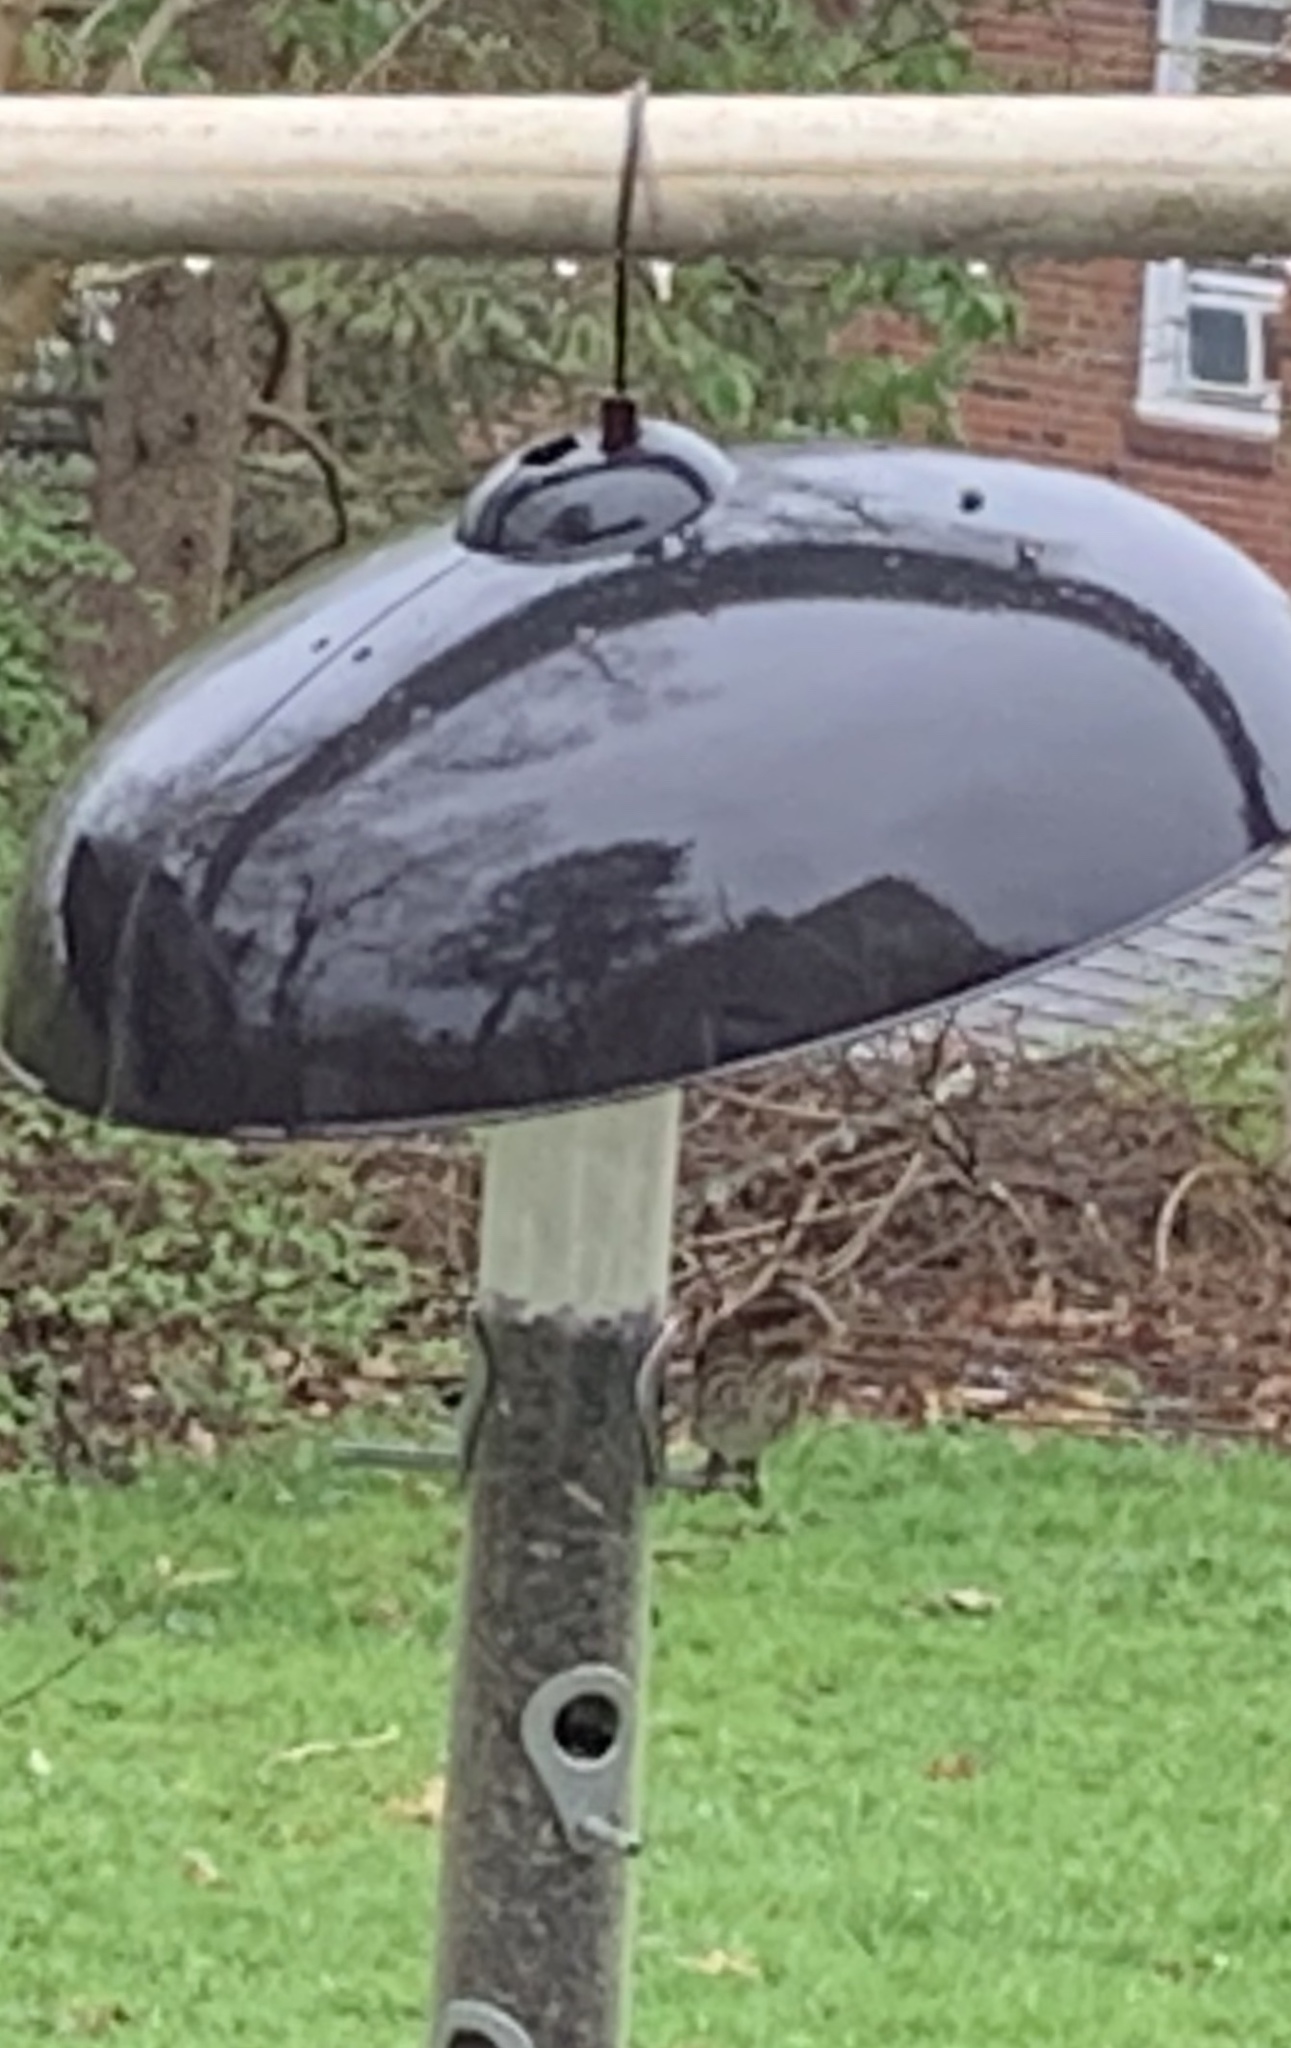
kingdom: Animalia
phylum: Chordata
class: Aves
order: Passeriformes
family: Fringillidae
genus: Haemorhous
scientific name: Haemorhous purpureus
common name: Purple finch
